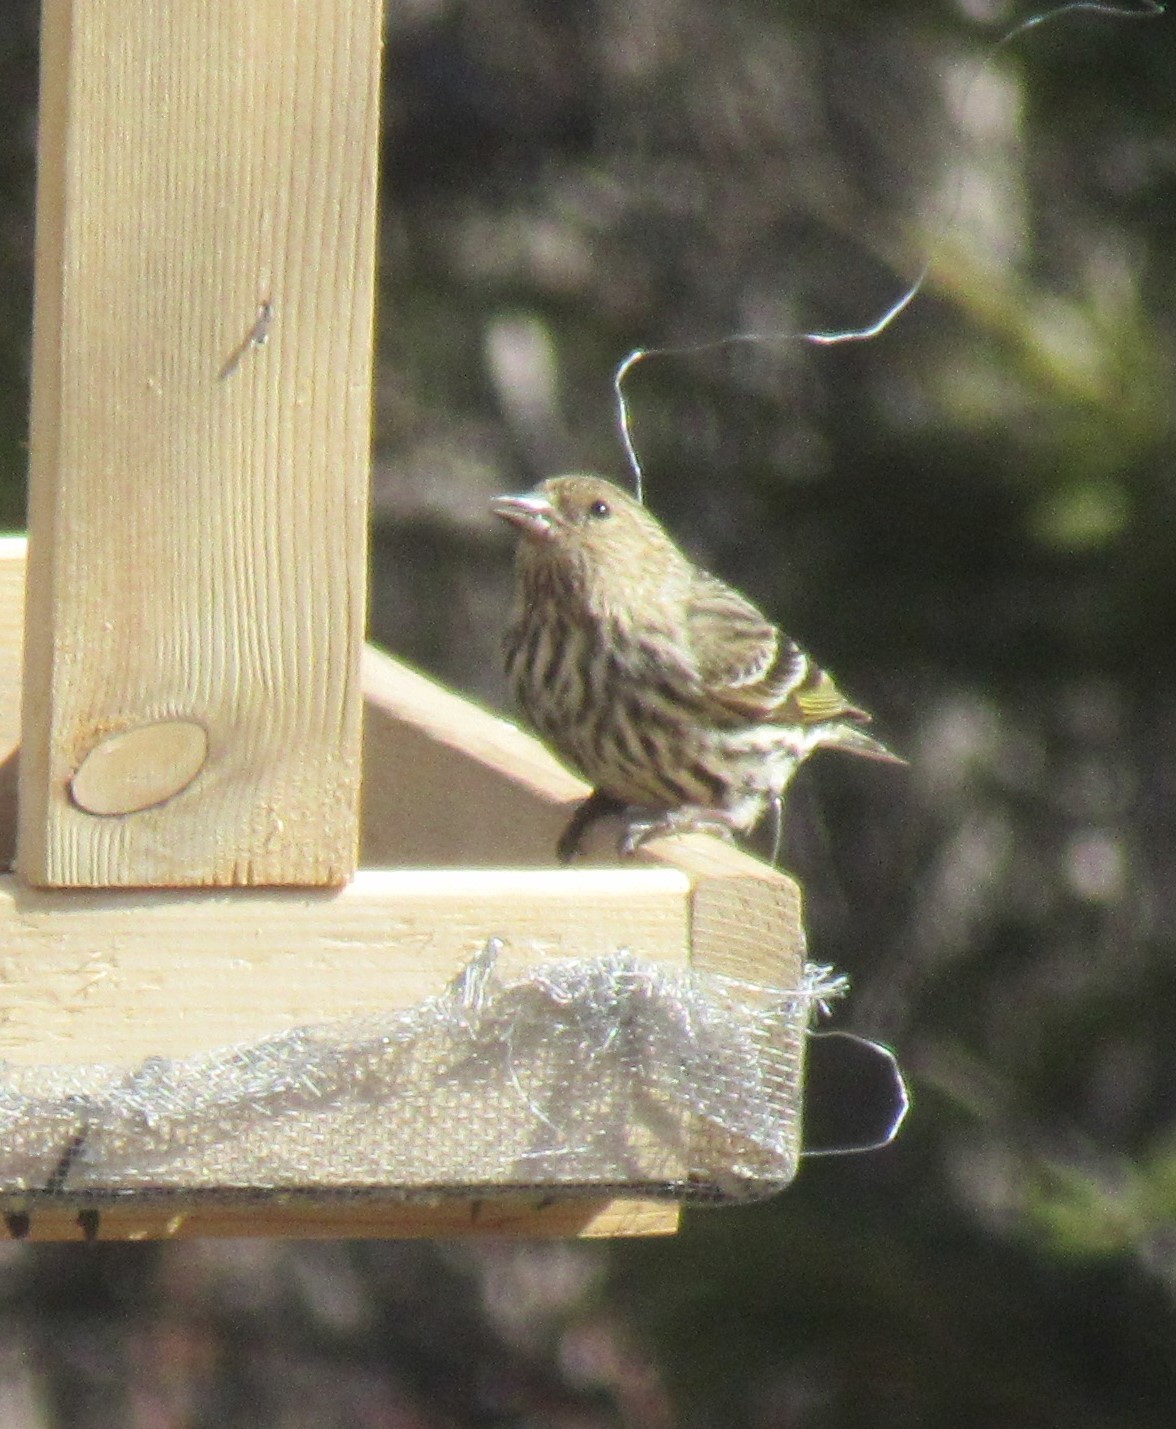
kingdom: Animalia
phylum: Chordata
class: Aves
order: Passeriformes
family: Fringillidae
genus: Spinus
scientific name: Spinus pinus
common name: Pine siskin
